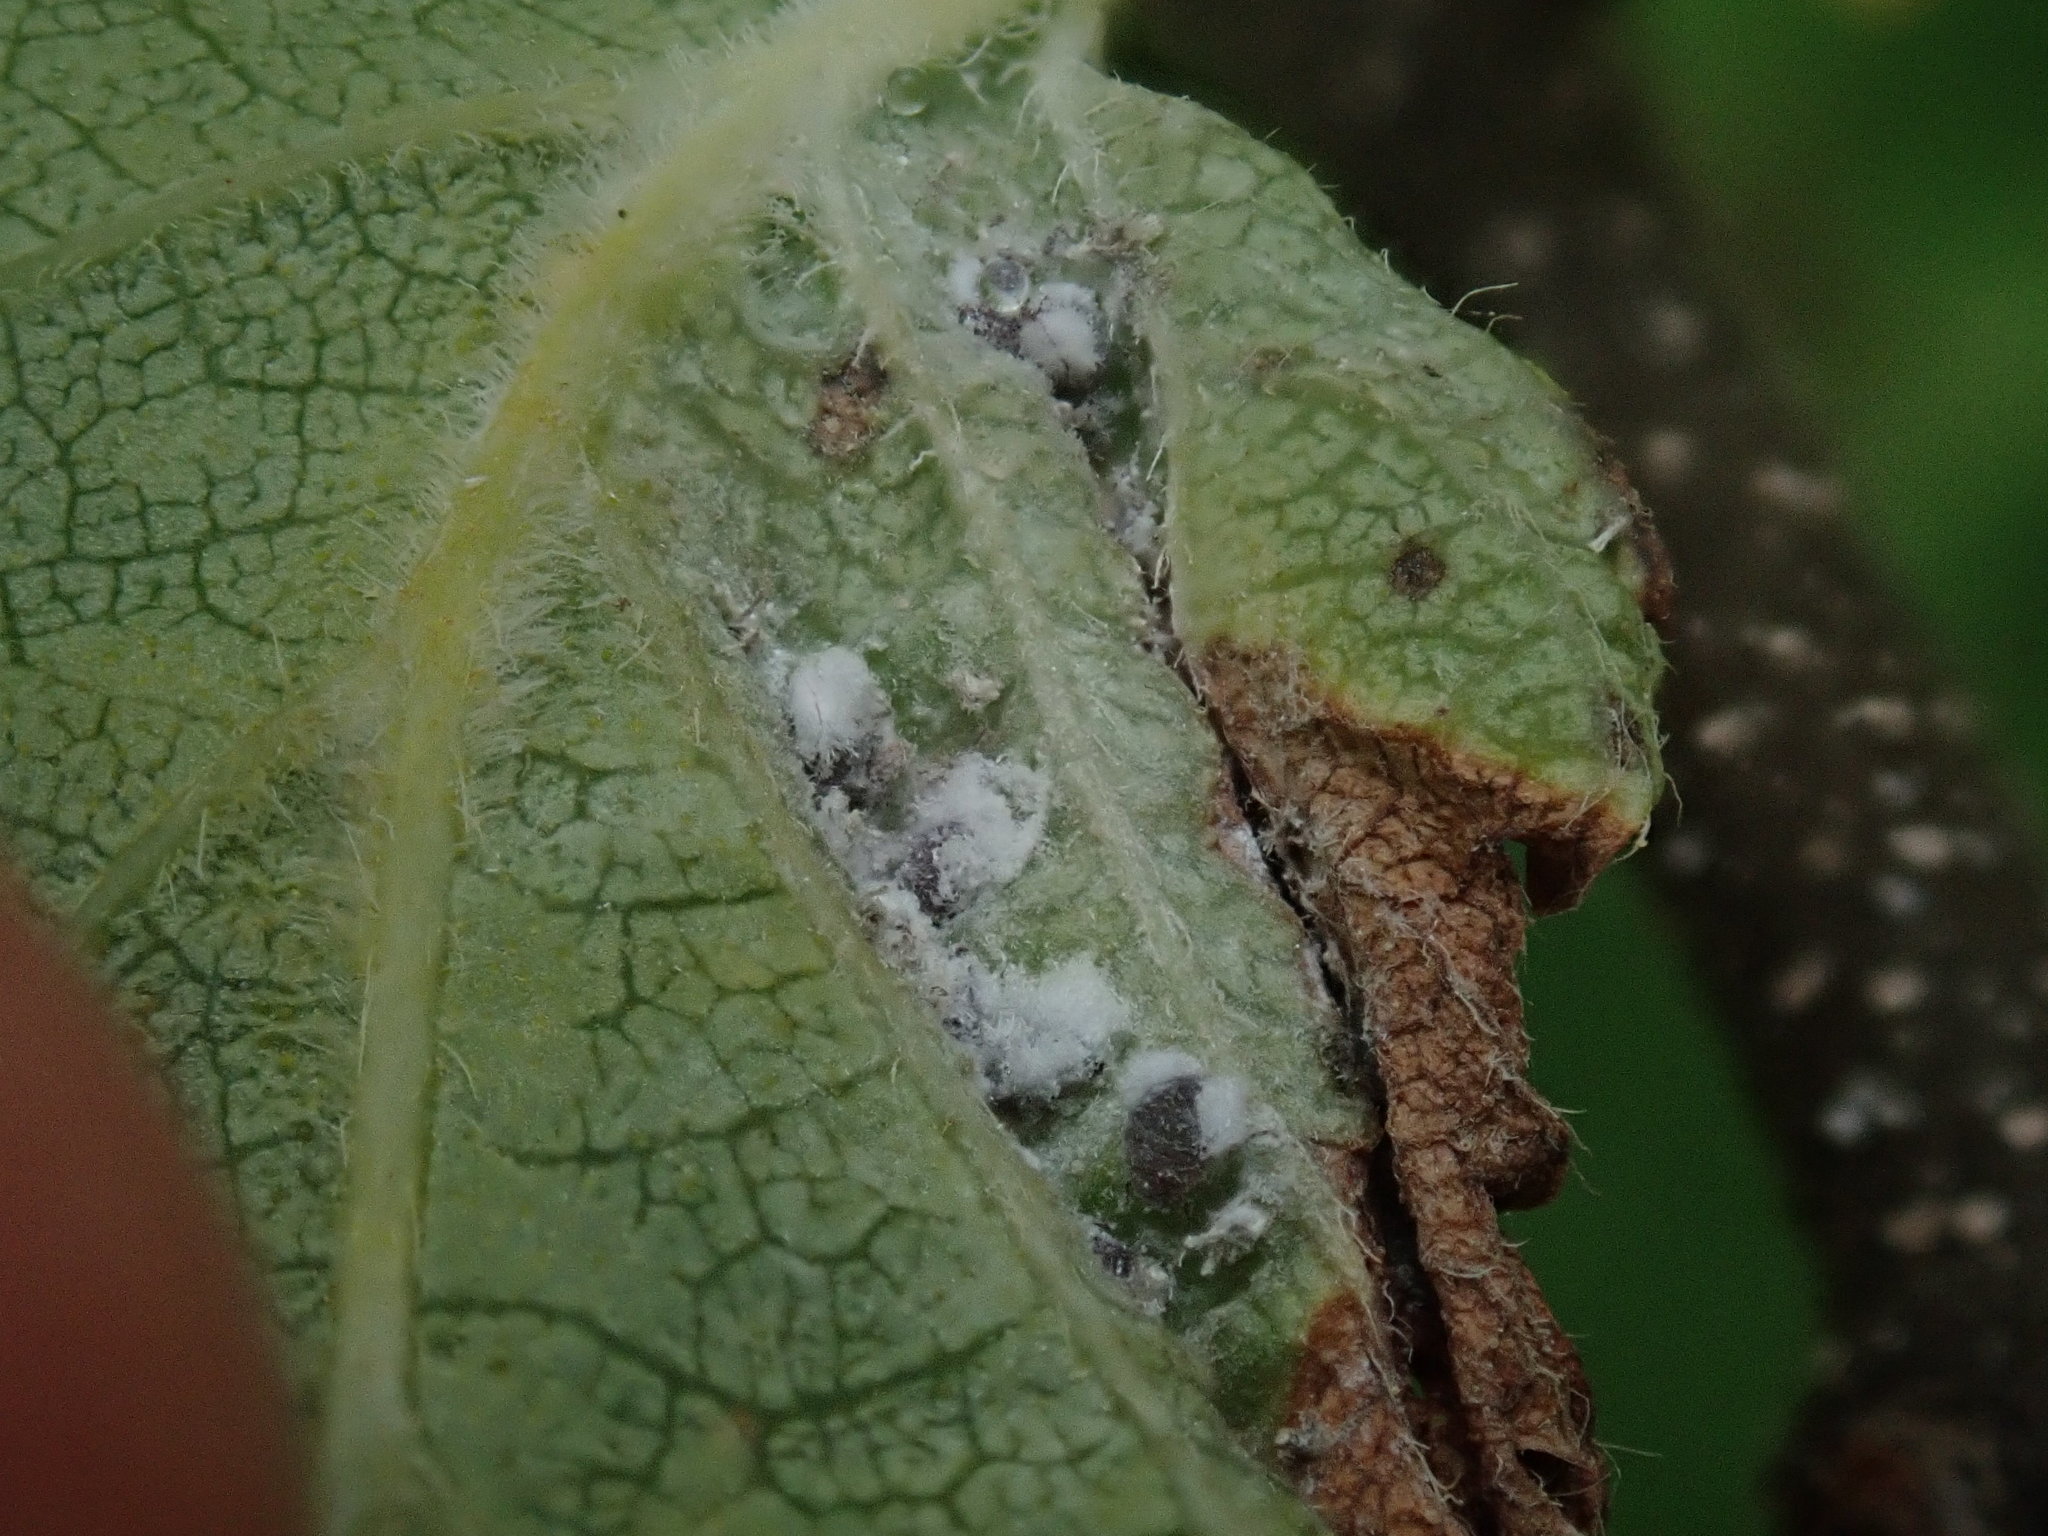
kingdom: Animalia
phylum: Arthropoda
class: Insecta
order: Hemiptera
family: Aphididae
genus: Hamamelistes
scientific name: Hamamelistes spinosus
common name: Witch hazel gall aphid
